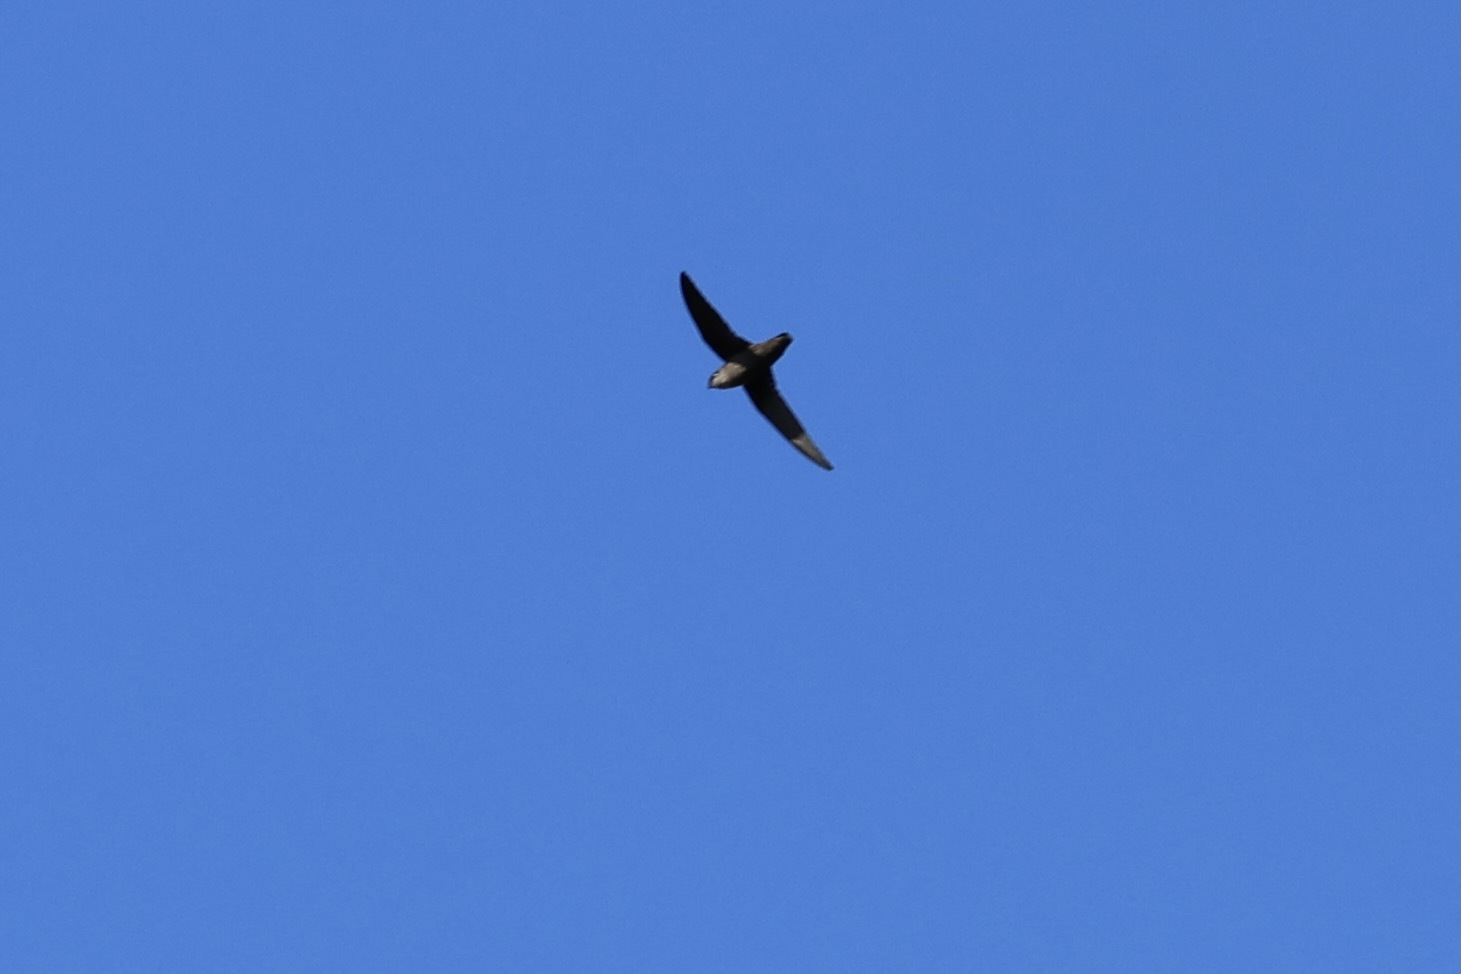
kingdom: Animalia
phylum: Chordata
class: Aves
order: Apodiformes
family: Apodidae
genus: Chaetura
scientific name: Chaetura vauxi
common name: Vaux's swift
